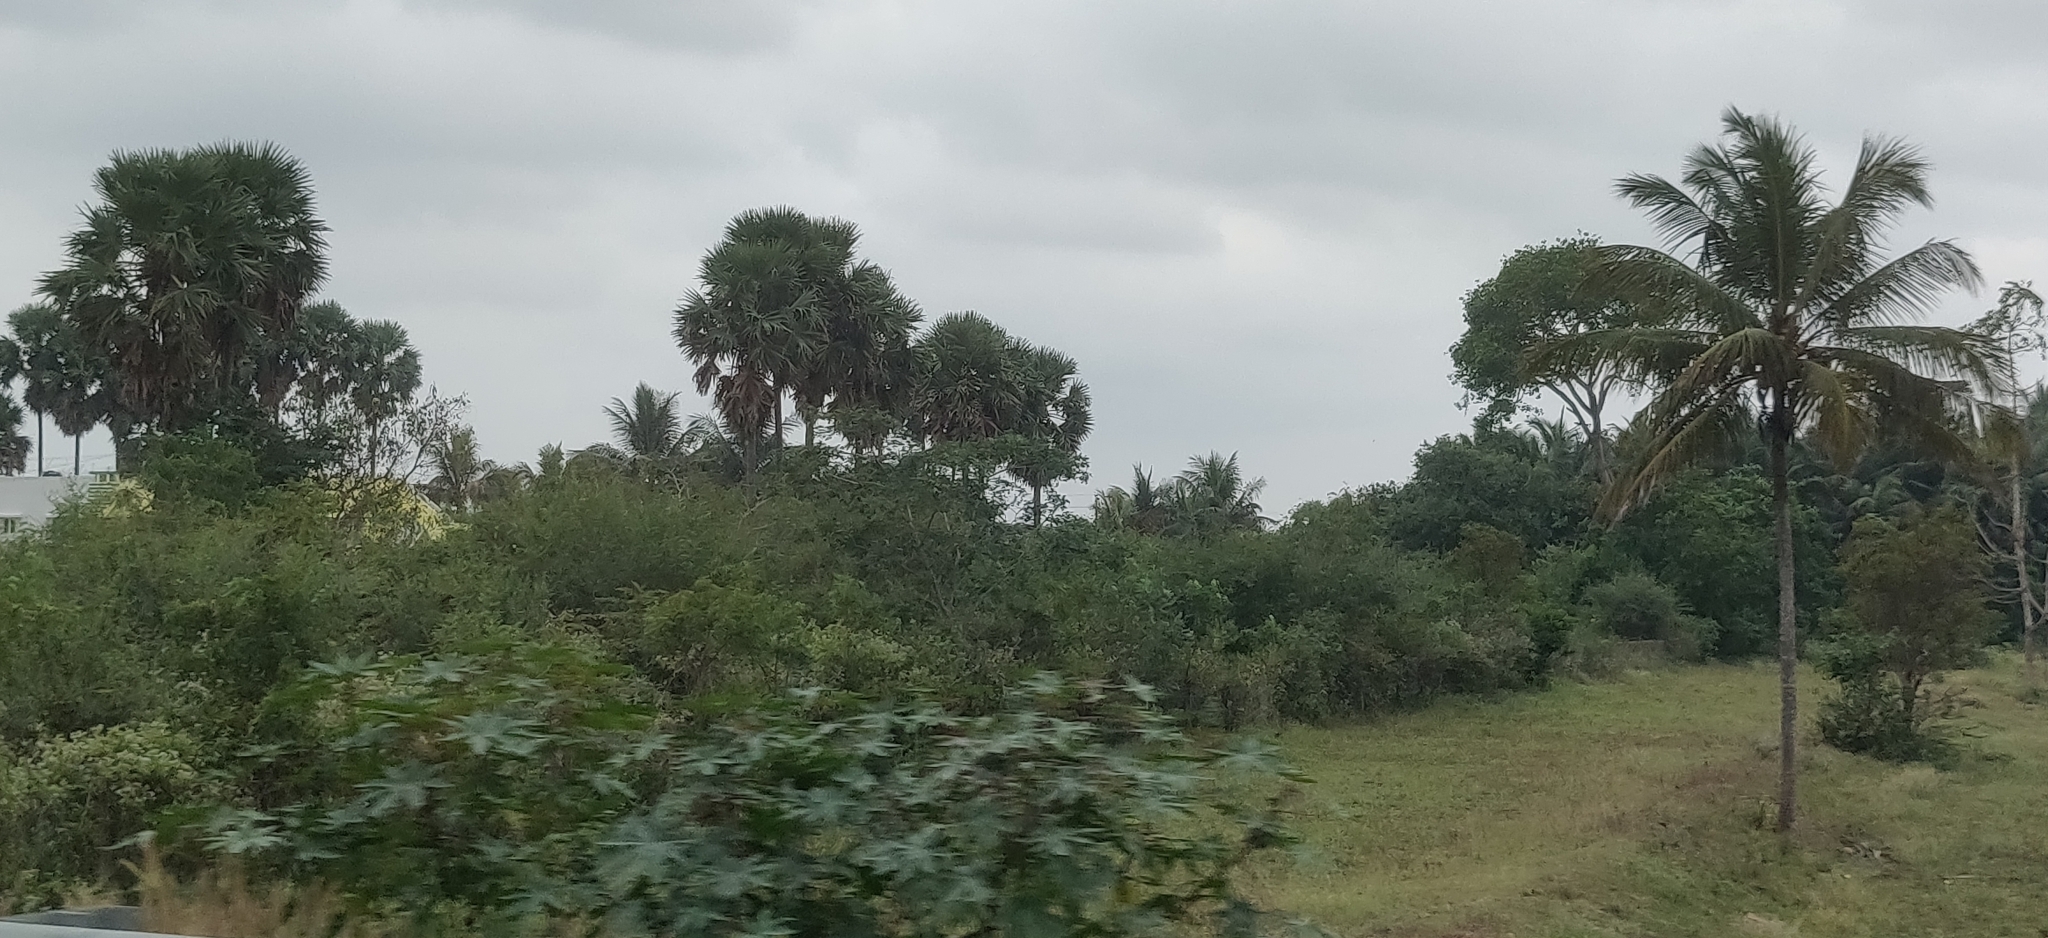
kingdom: Plantae
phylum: Tracheophyta
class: Liliopsida
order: Arecales
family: Arecaceae
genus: Borassus
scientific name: Borassus flabellifer
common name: Palmyra palm
